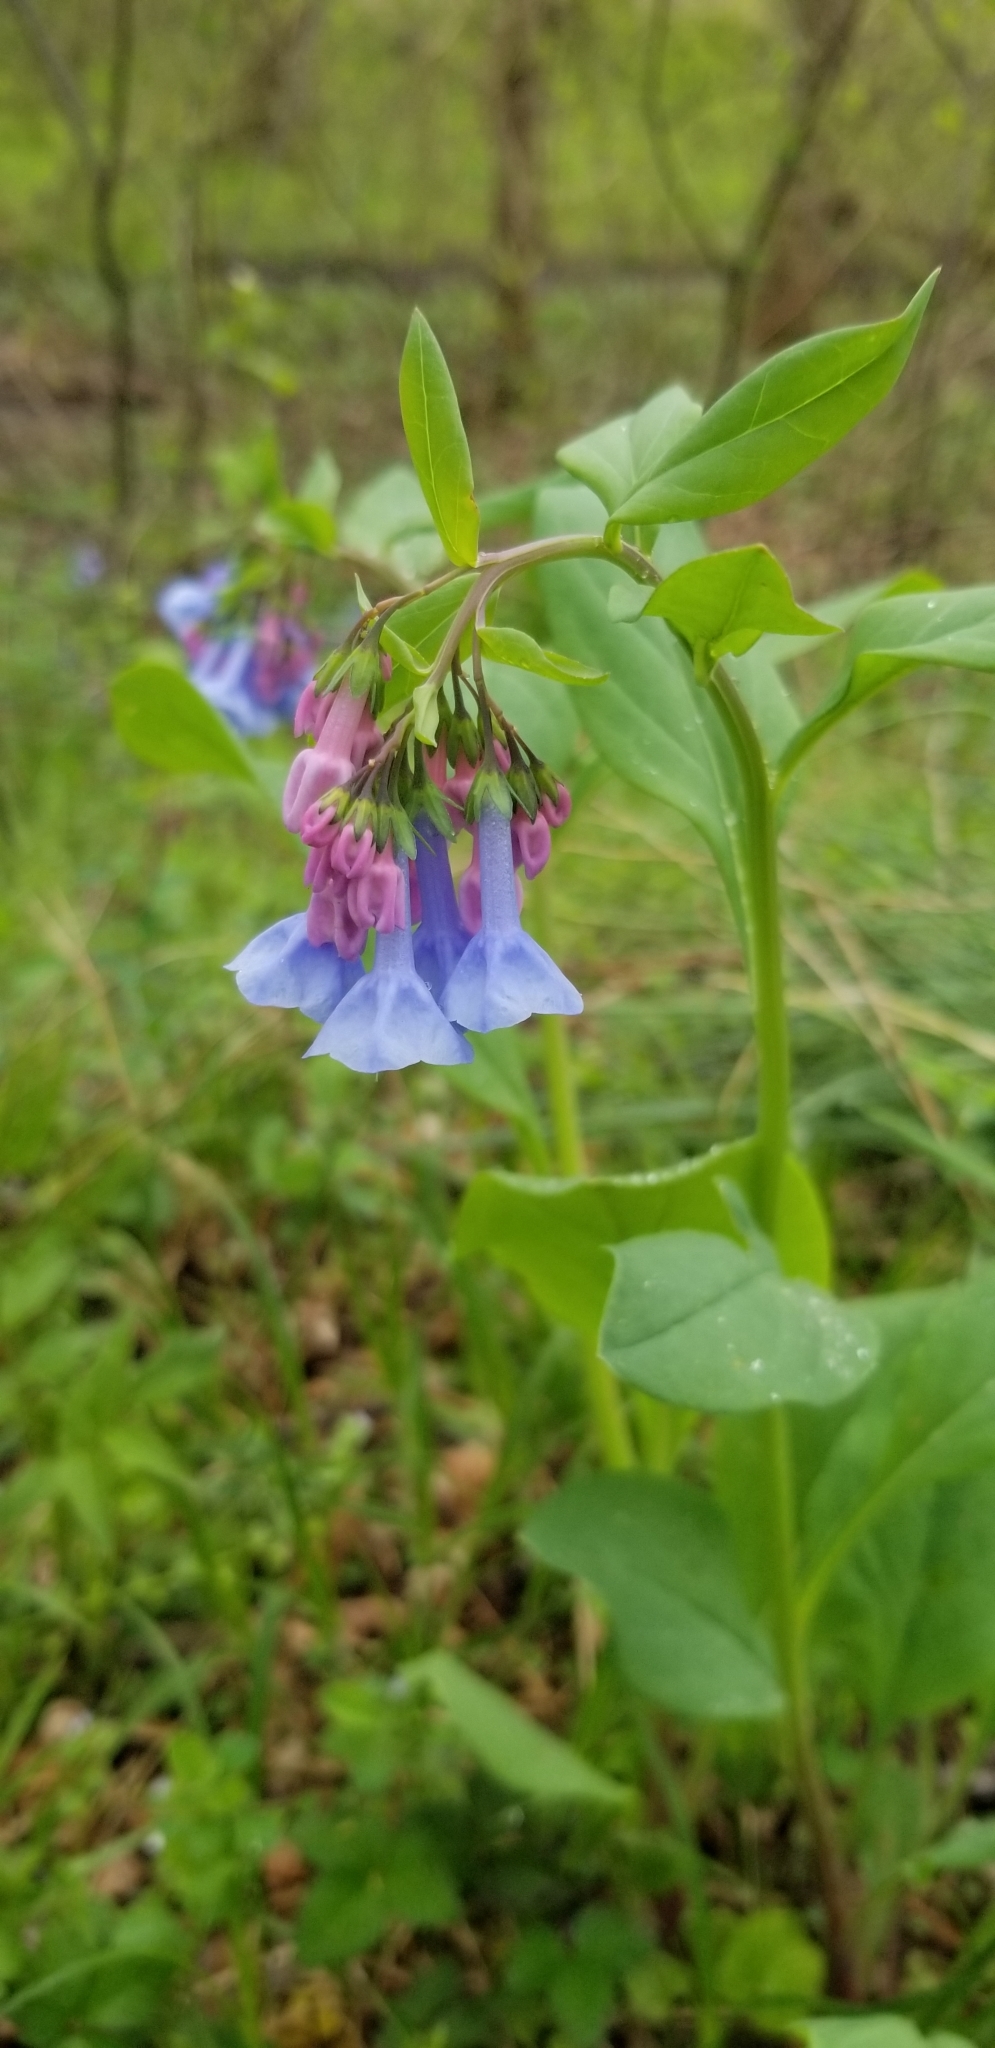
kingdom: Plantae
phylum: Tracheophyta
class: Magnoliopsida
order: Boraginales
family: Boraginaceae
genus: Mertensia
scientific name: Mertensia virginica
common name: Virginia bluebells
